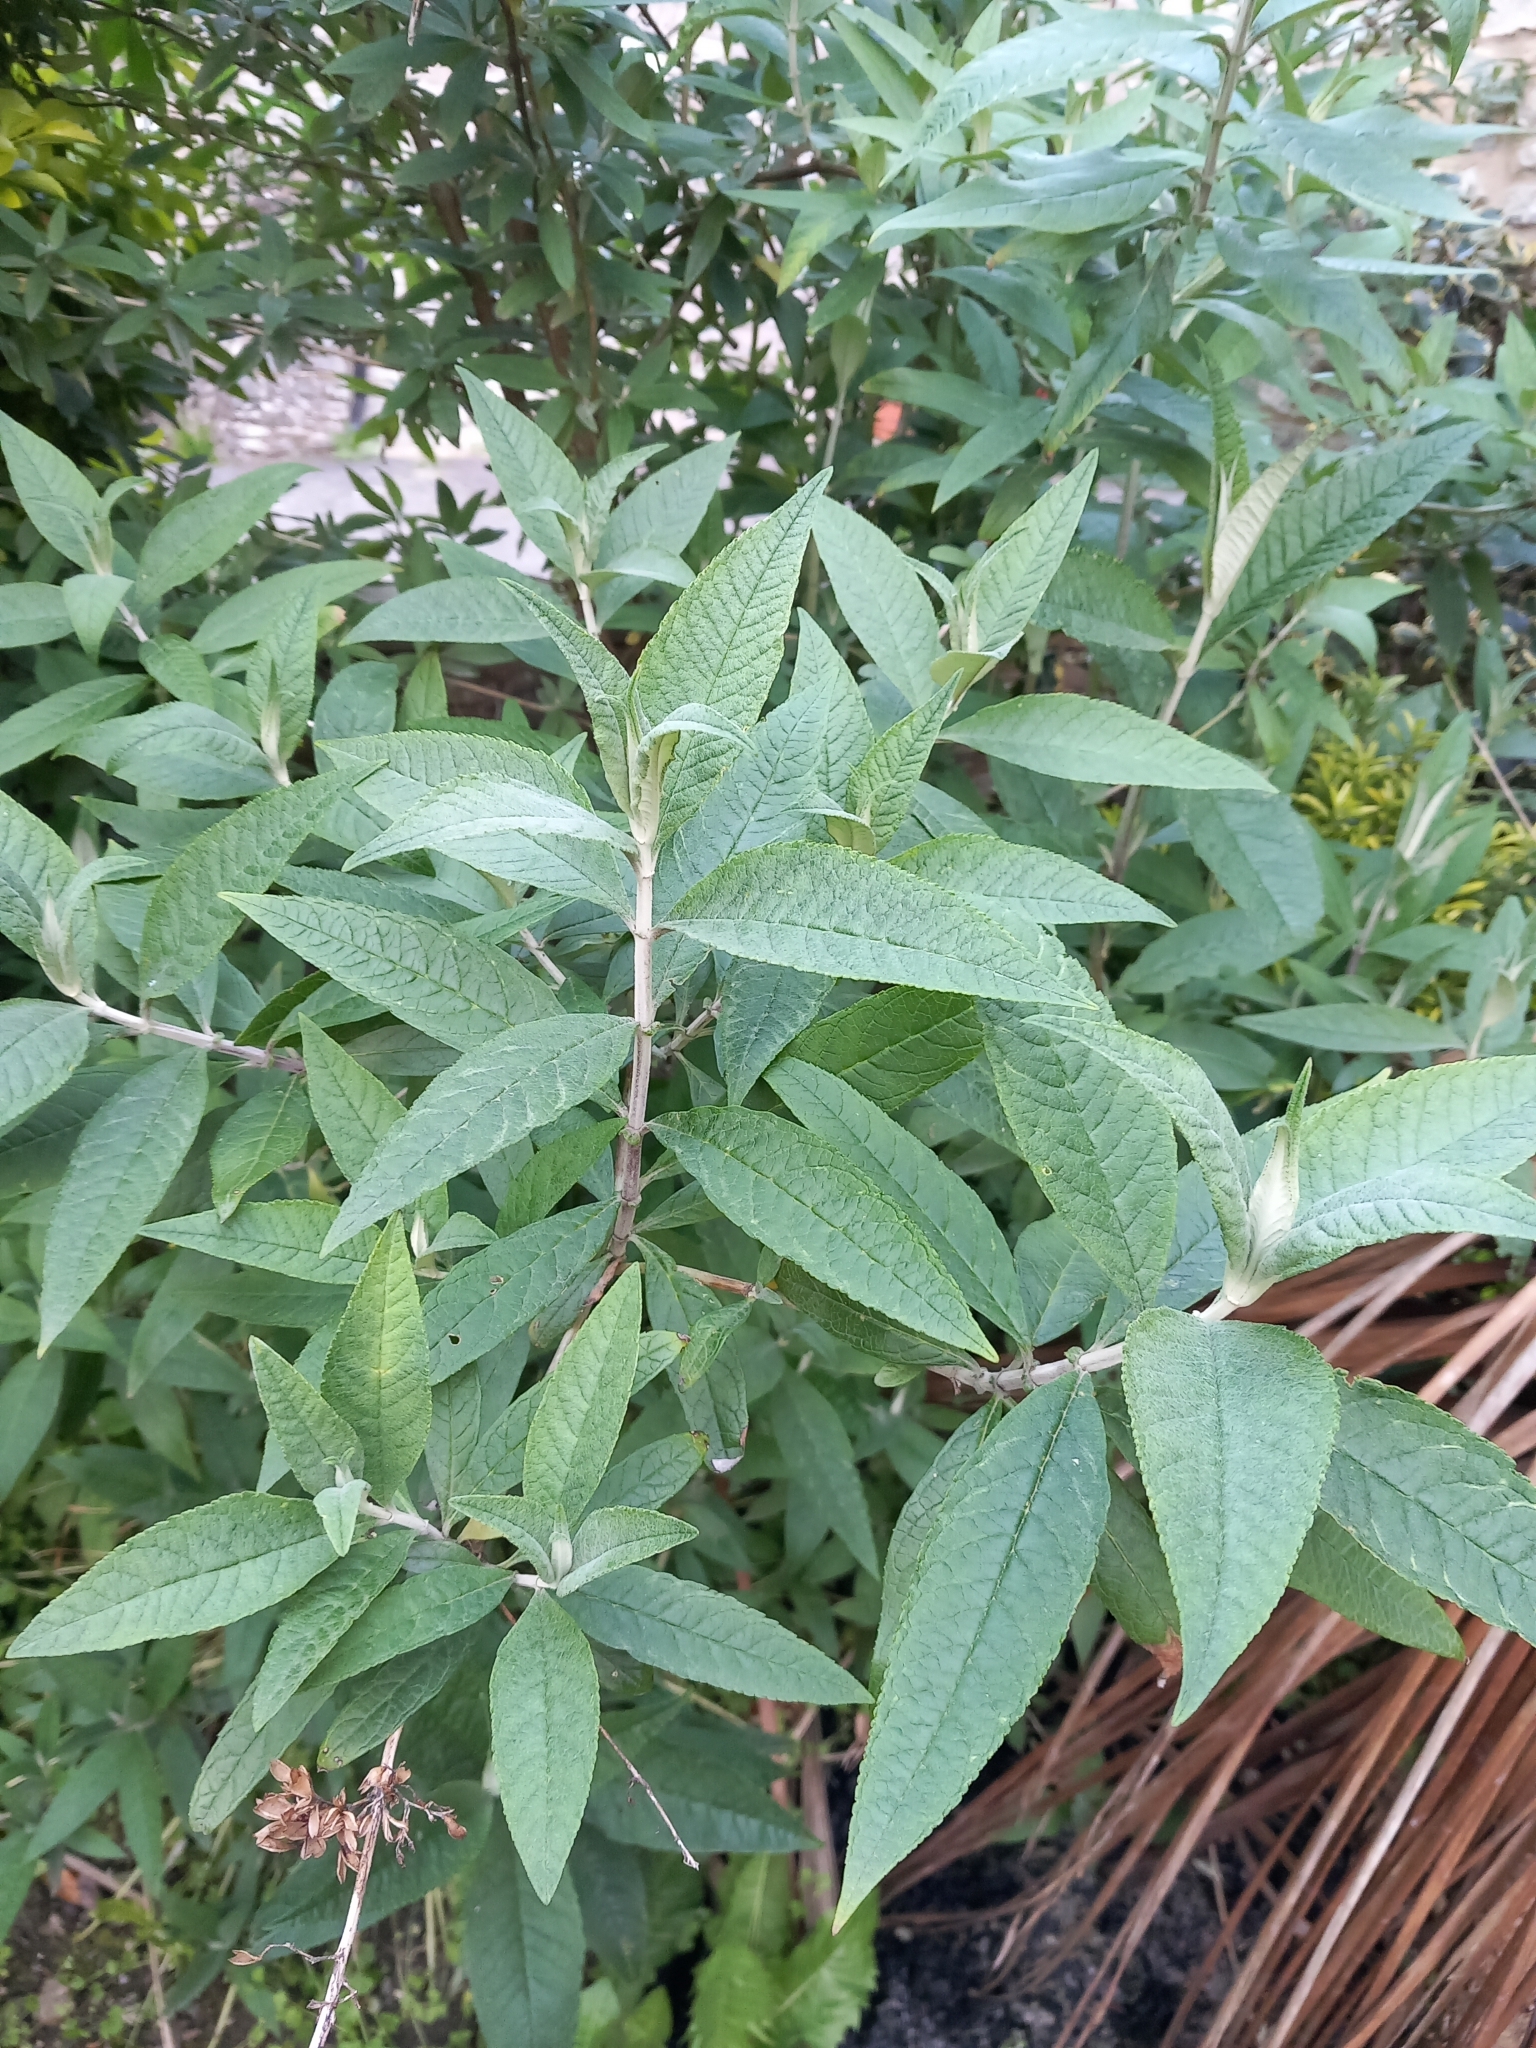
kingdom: Plantae
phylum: Tracheophyta
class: Magnoliopsida
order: Lamiales
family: Scrophulariaceae
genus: Buddleja
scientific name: Buddleja davidii
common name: Butterfly-bush
